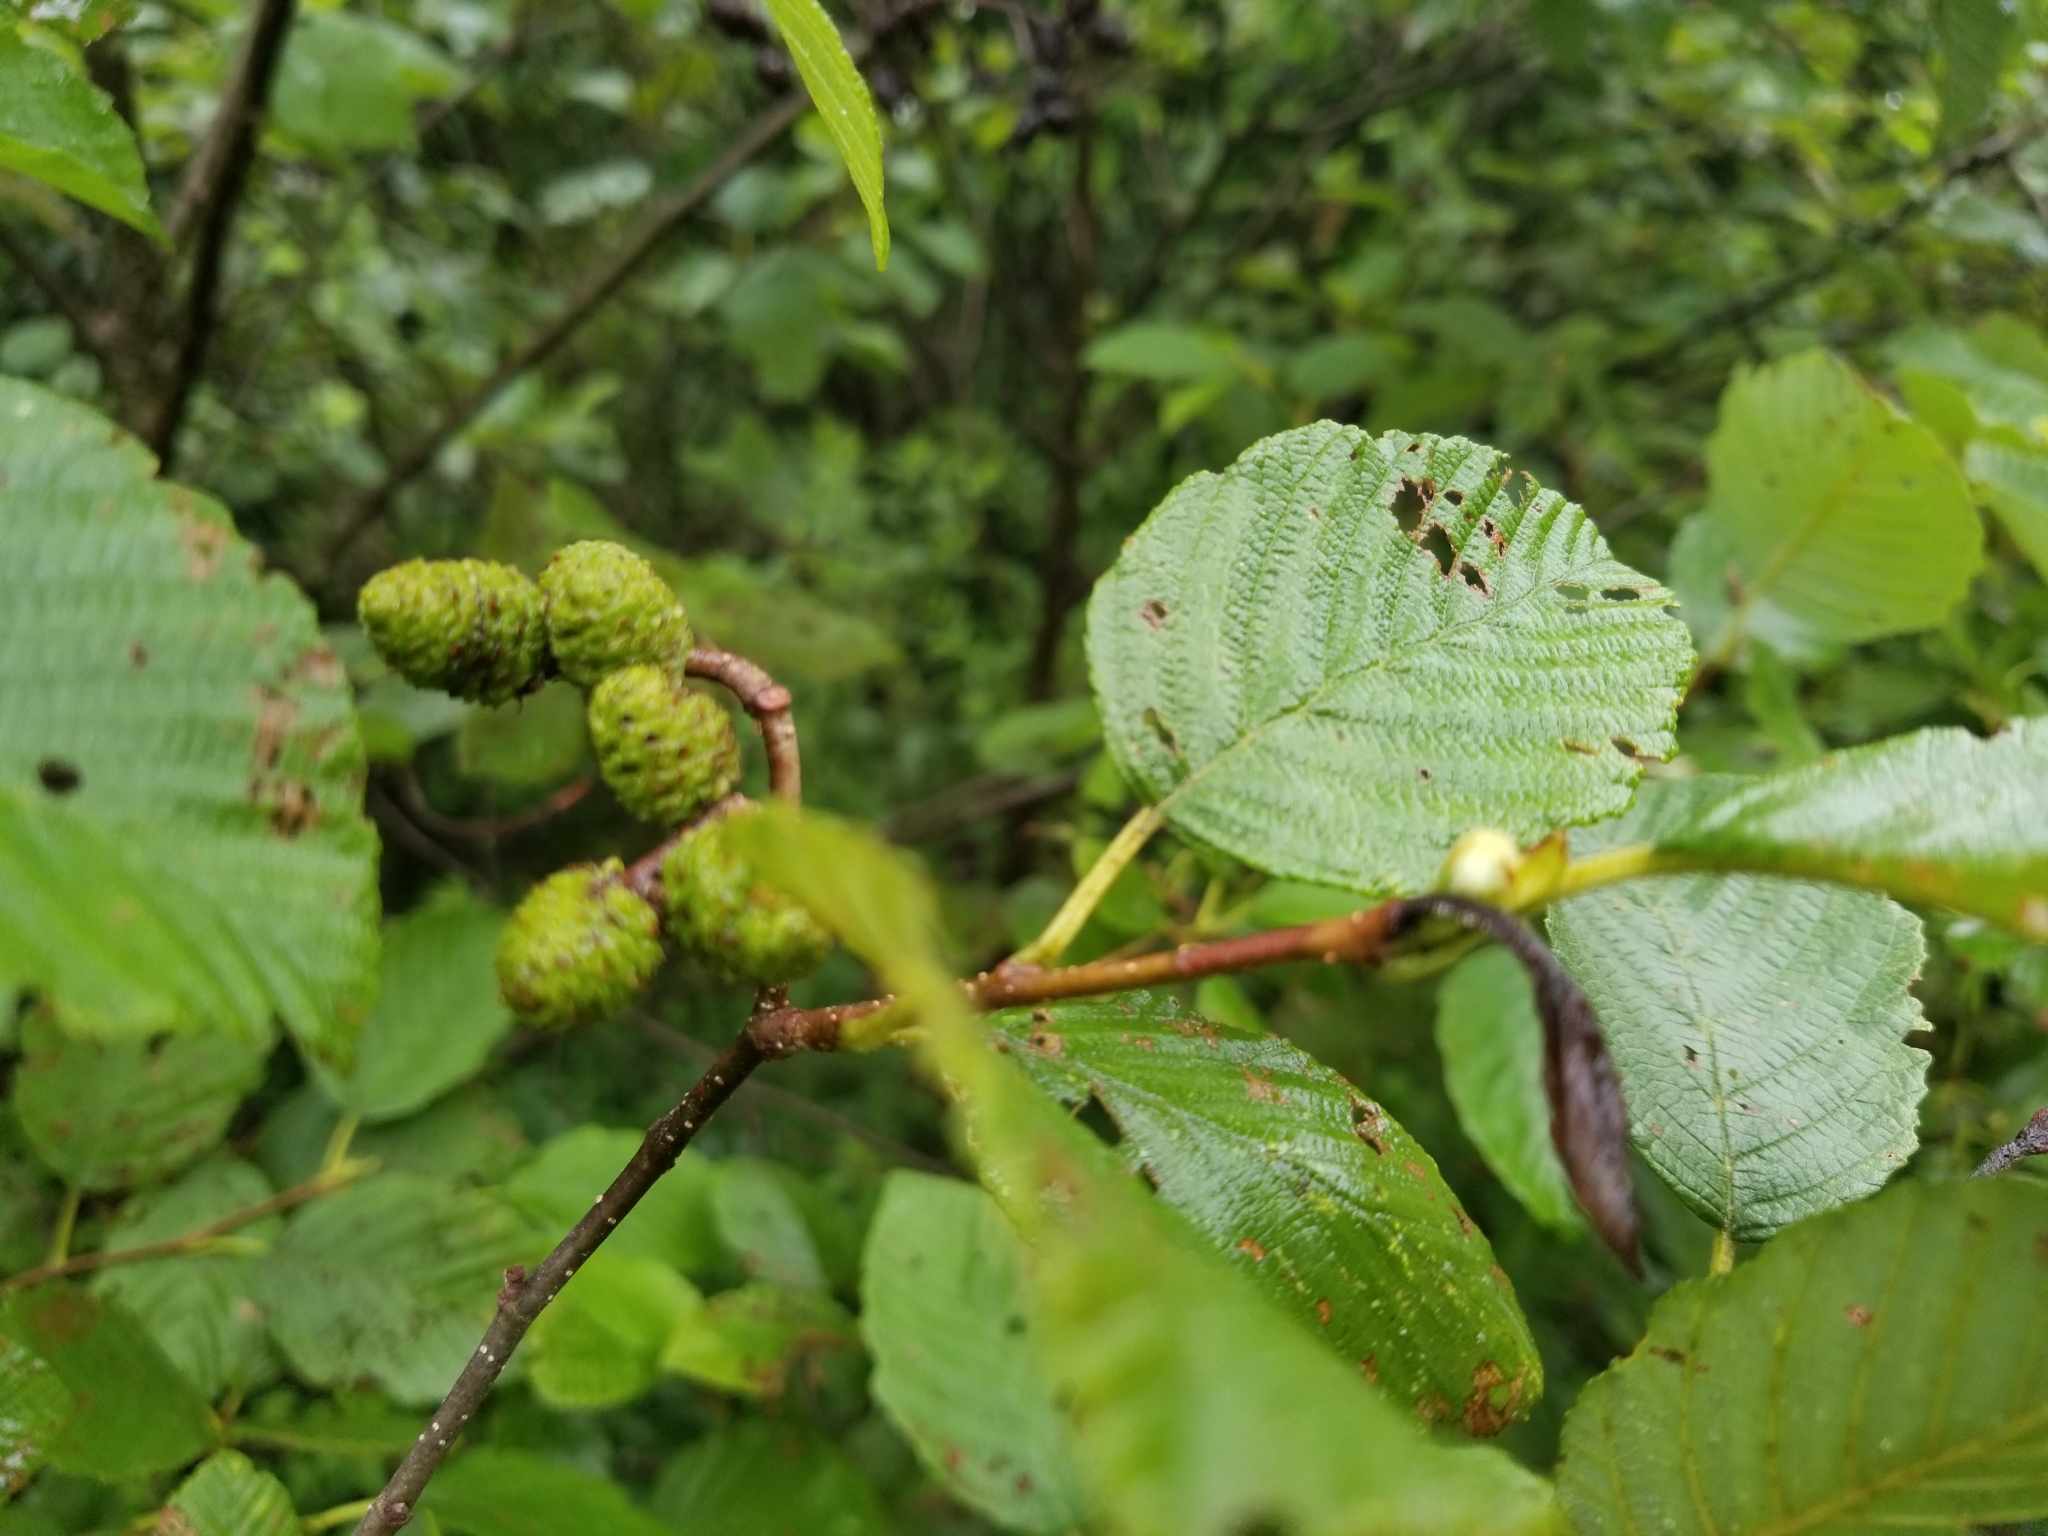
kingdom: Plantae
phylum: Tracheophyta
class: Magnoliopsida
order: Fagales
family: Betulaceae
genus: Alnus
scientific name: Alnus incana
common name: Grey alder
